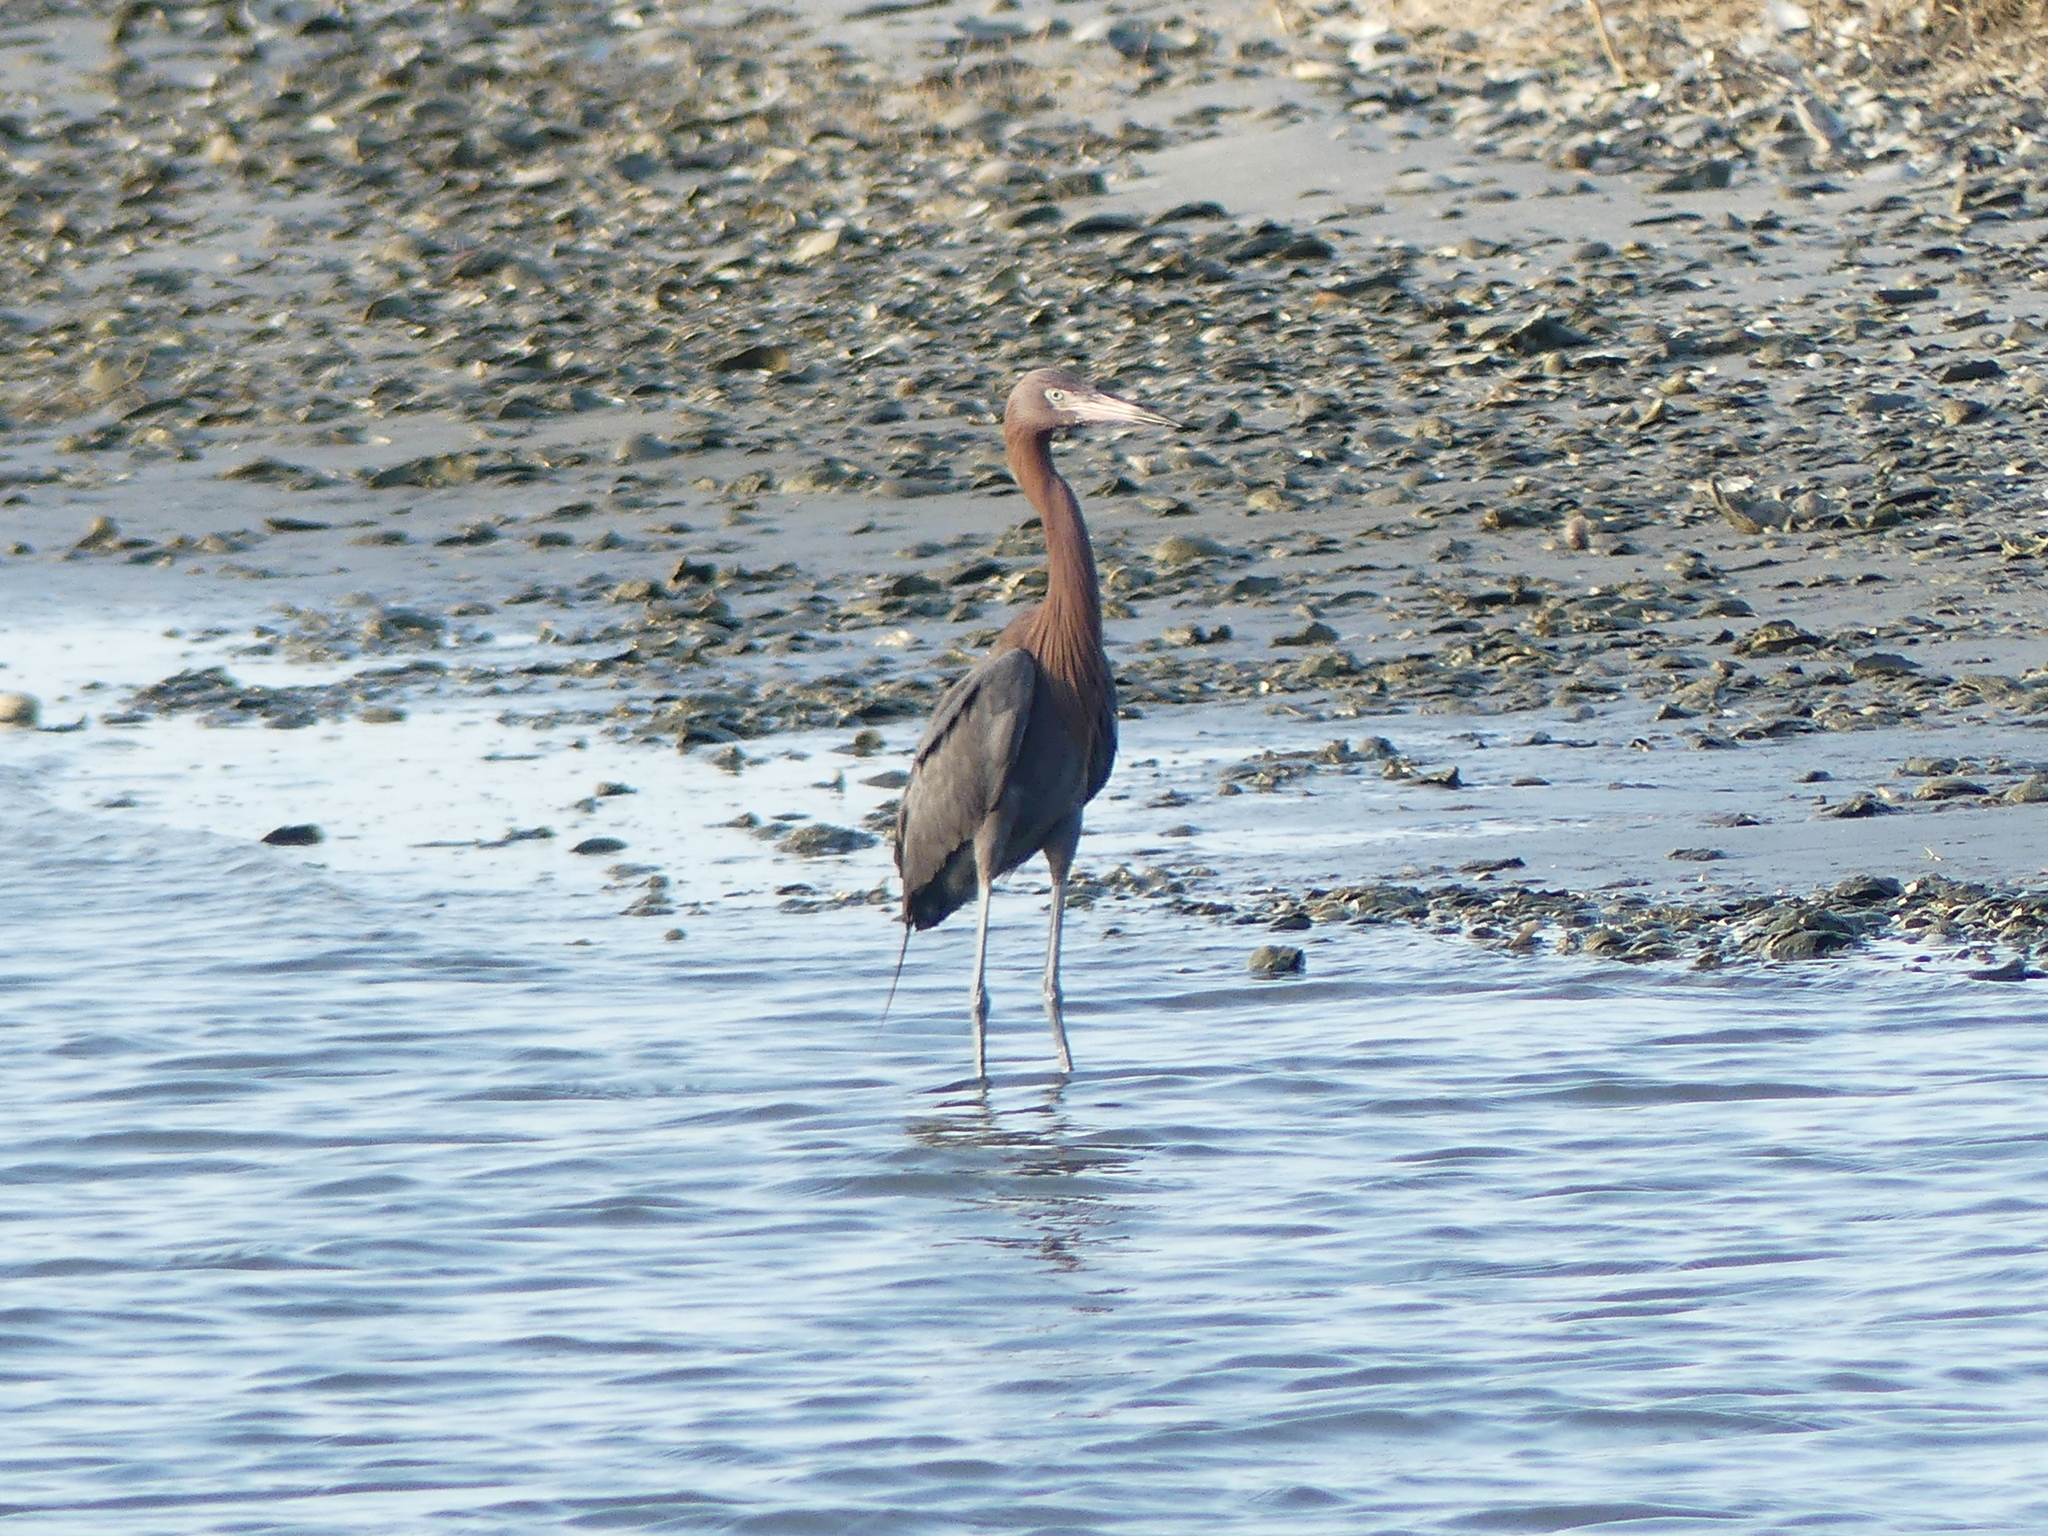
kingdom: Animalia
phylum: Chordata
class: Aves
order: Pelecaniformes
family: Ardeidae
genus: Egretta
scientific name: Egretta rufescens
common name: Reddish egret
